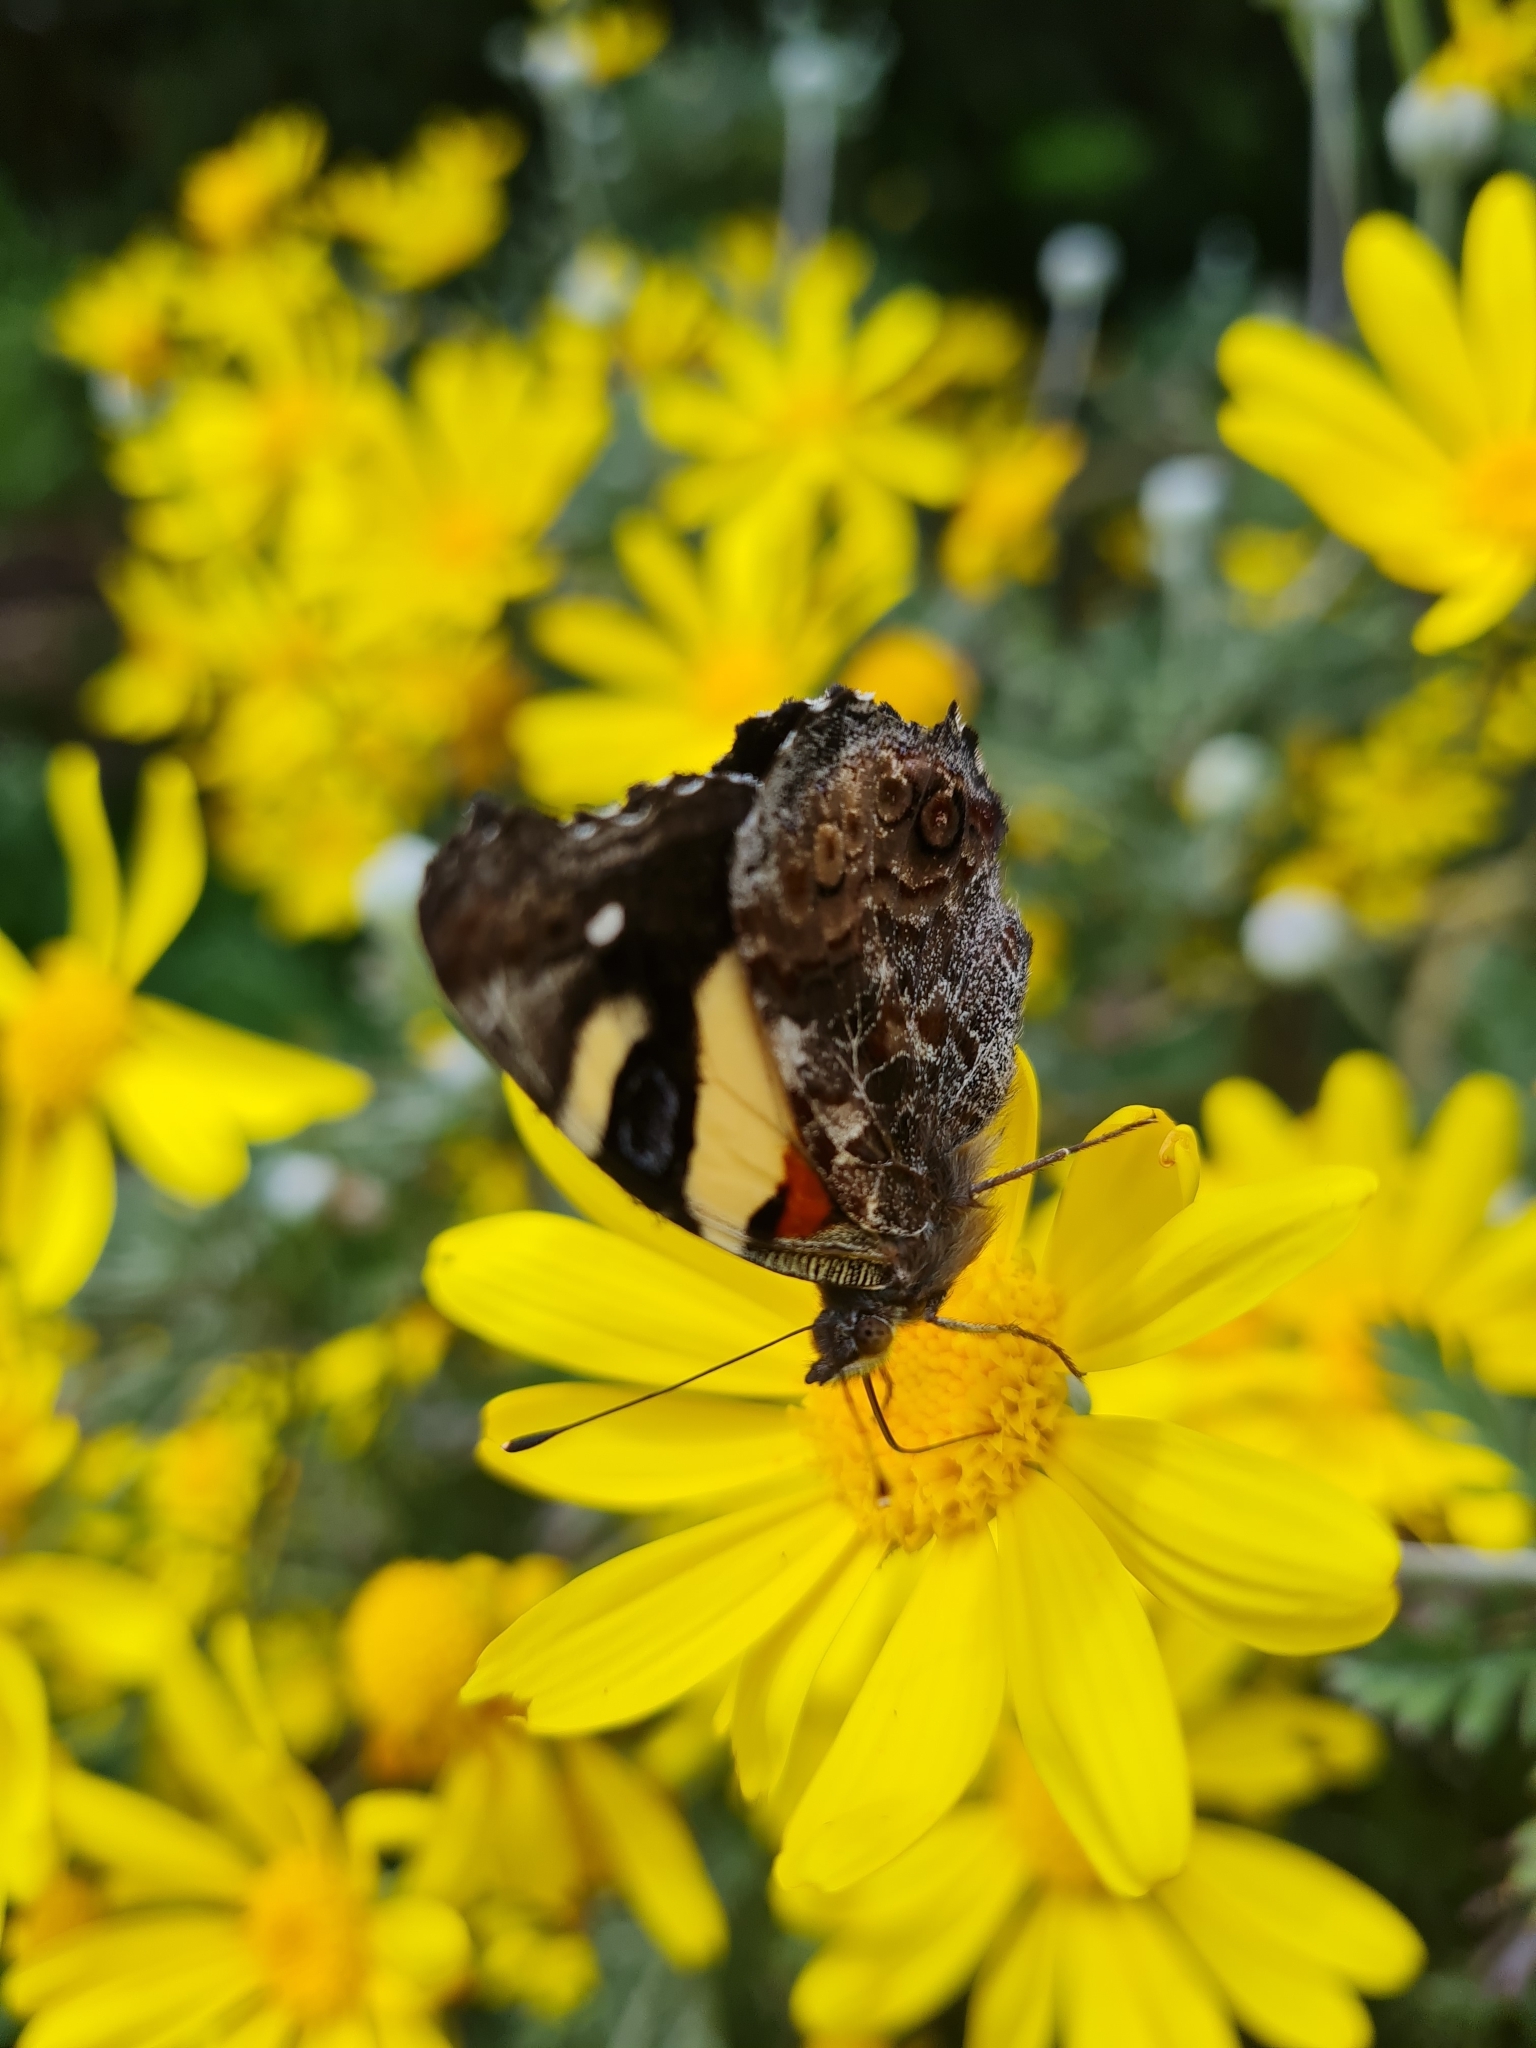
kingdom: Animalia
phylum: Arthropoda
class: Insecta
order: Lepidoptera
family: Nymphalidae
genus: Vanessa
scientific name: Vanessa itea
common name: Yellow admiral
